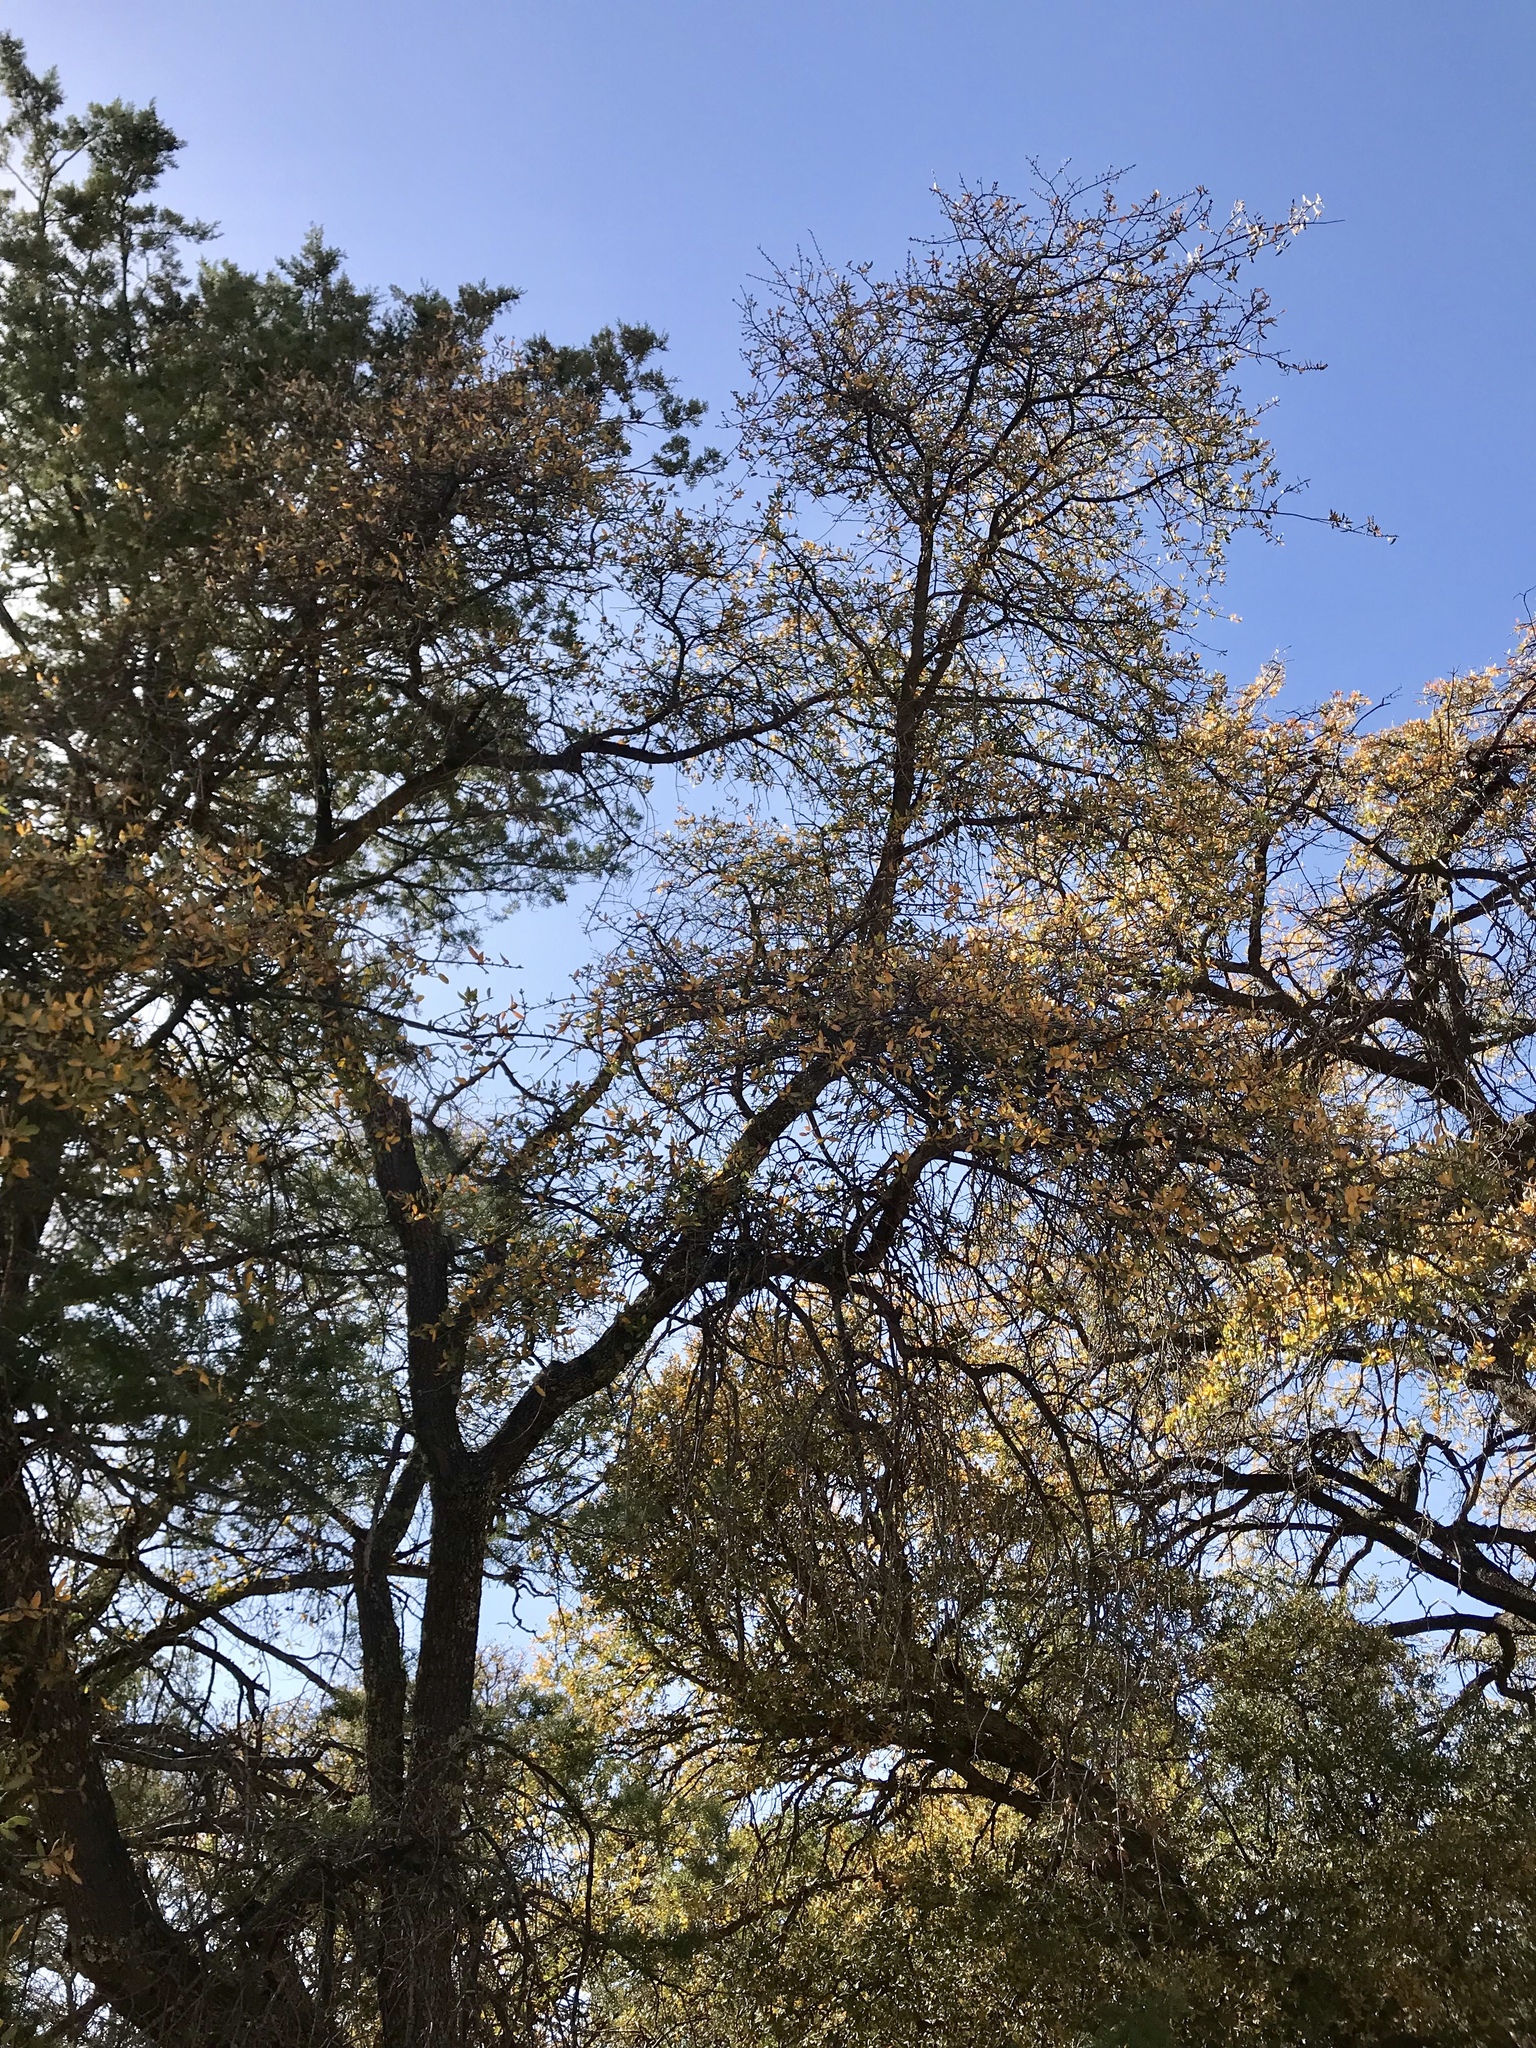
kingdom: Plantae
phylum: Tracheophyta
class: Magnoliopsida
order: Fagales
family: Fagaceae
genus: Quercus
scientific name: Quercus emoryi
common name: Emory oak
